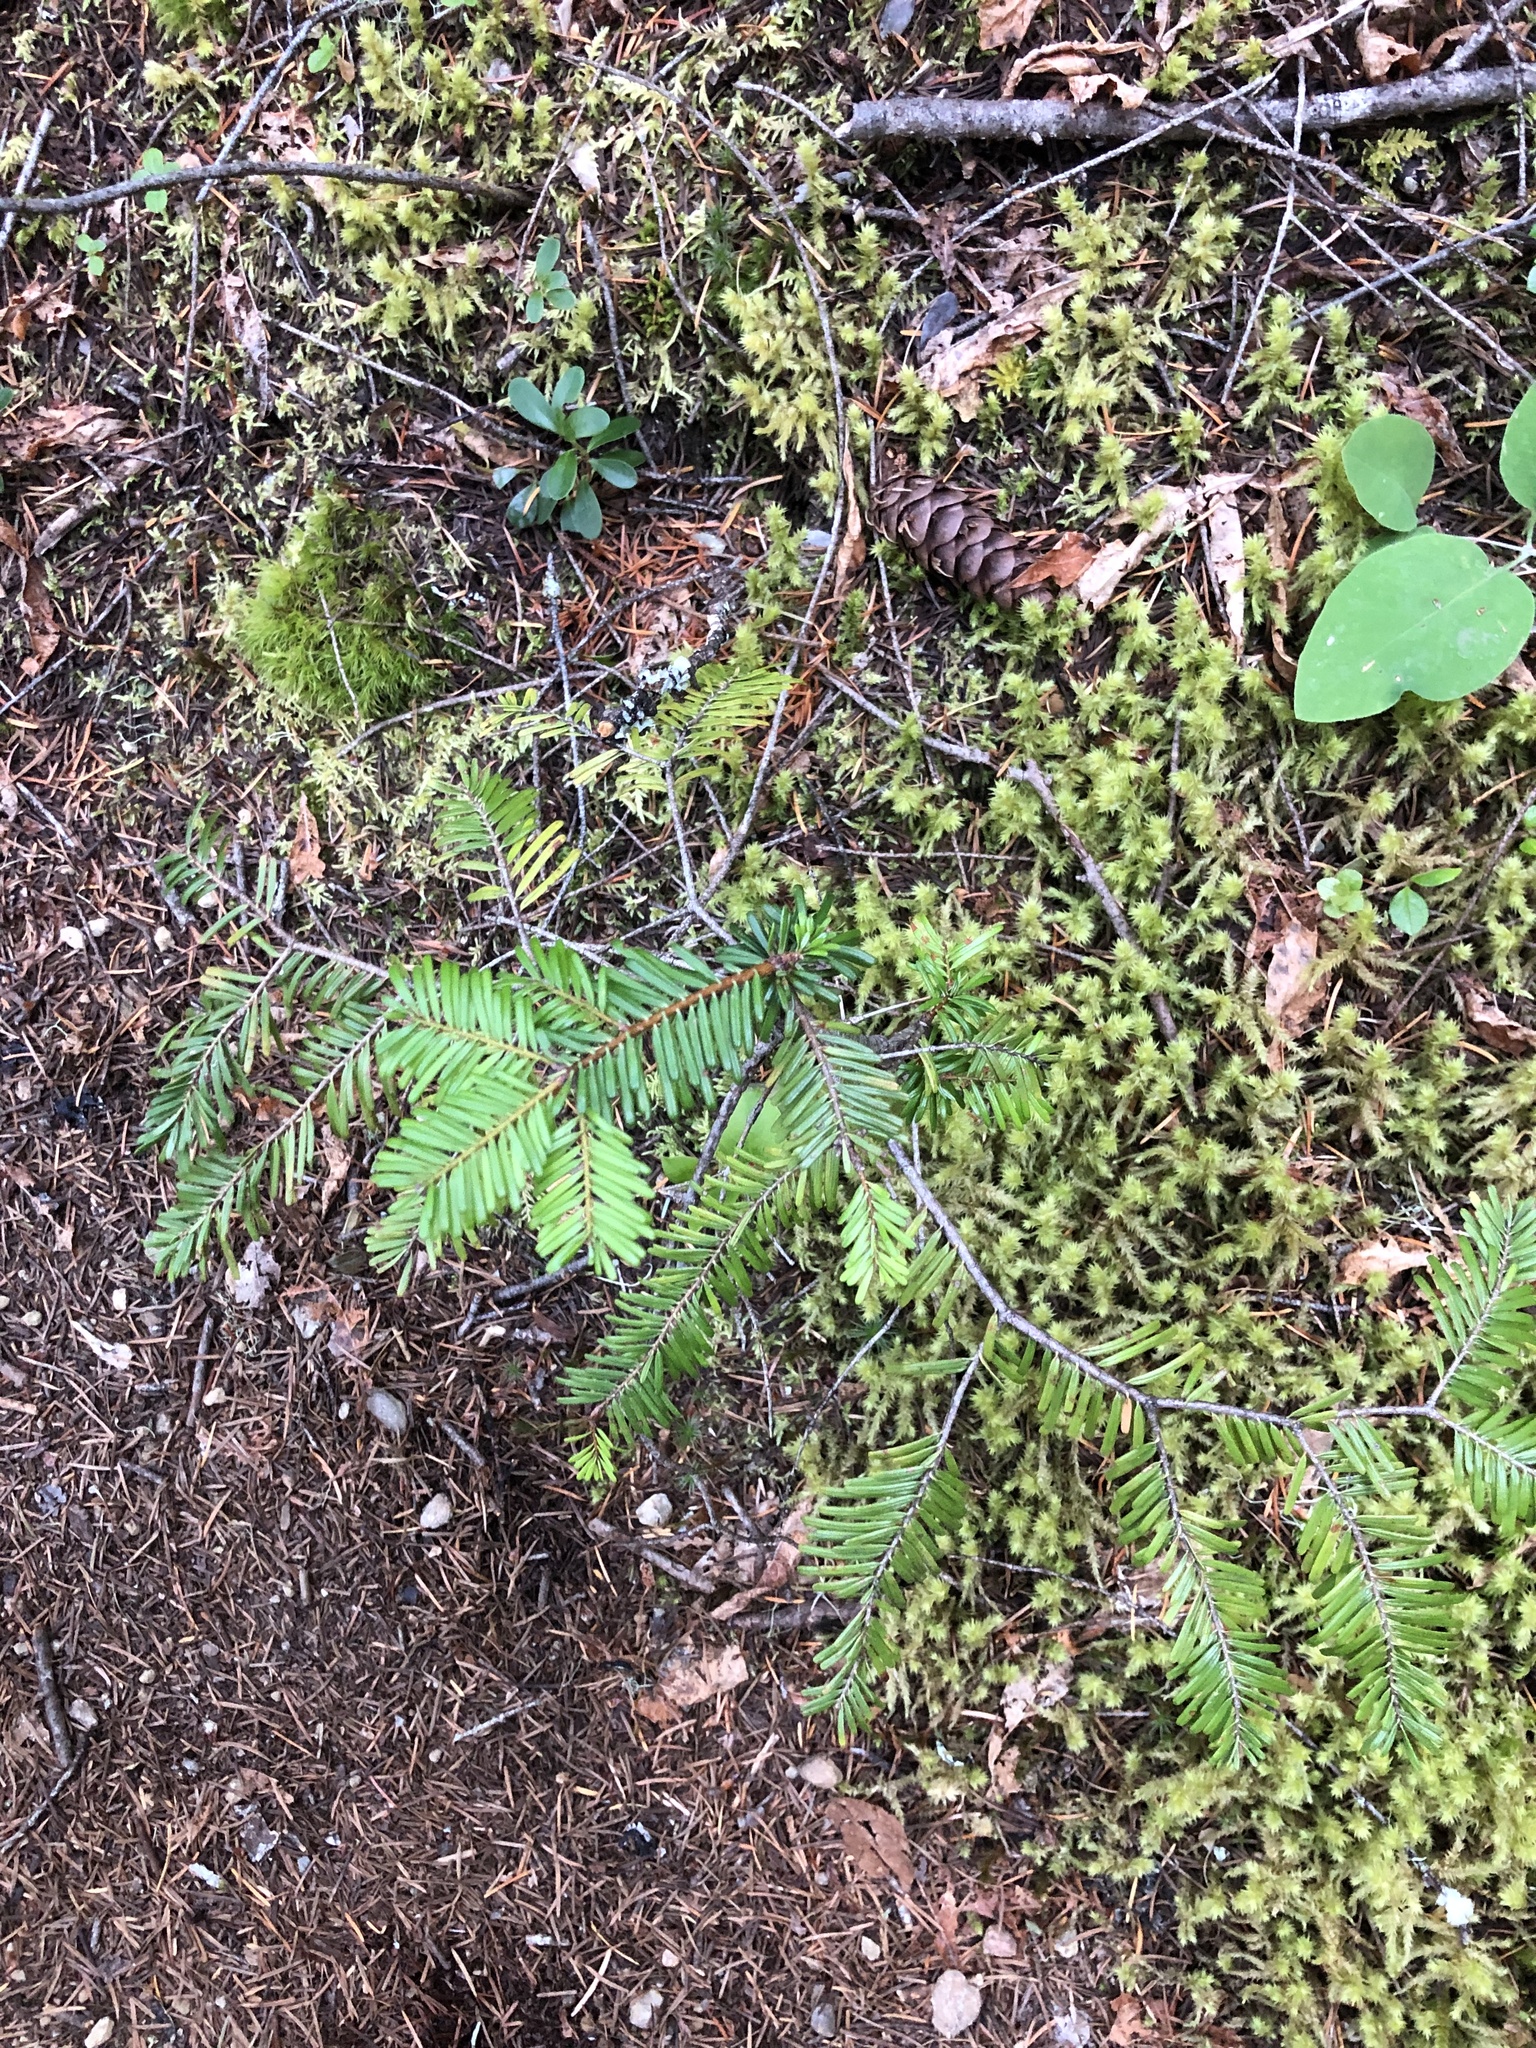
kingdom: Plantae
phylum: Tracheophyta
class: Pinopsida
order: Pinales
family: Pinaceae
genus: Abies
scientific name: Abies grandis
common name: Giant fir
